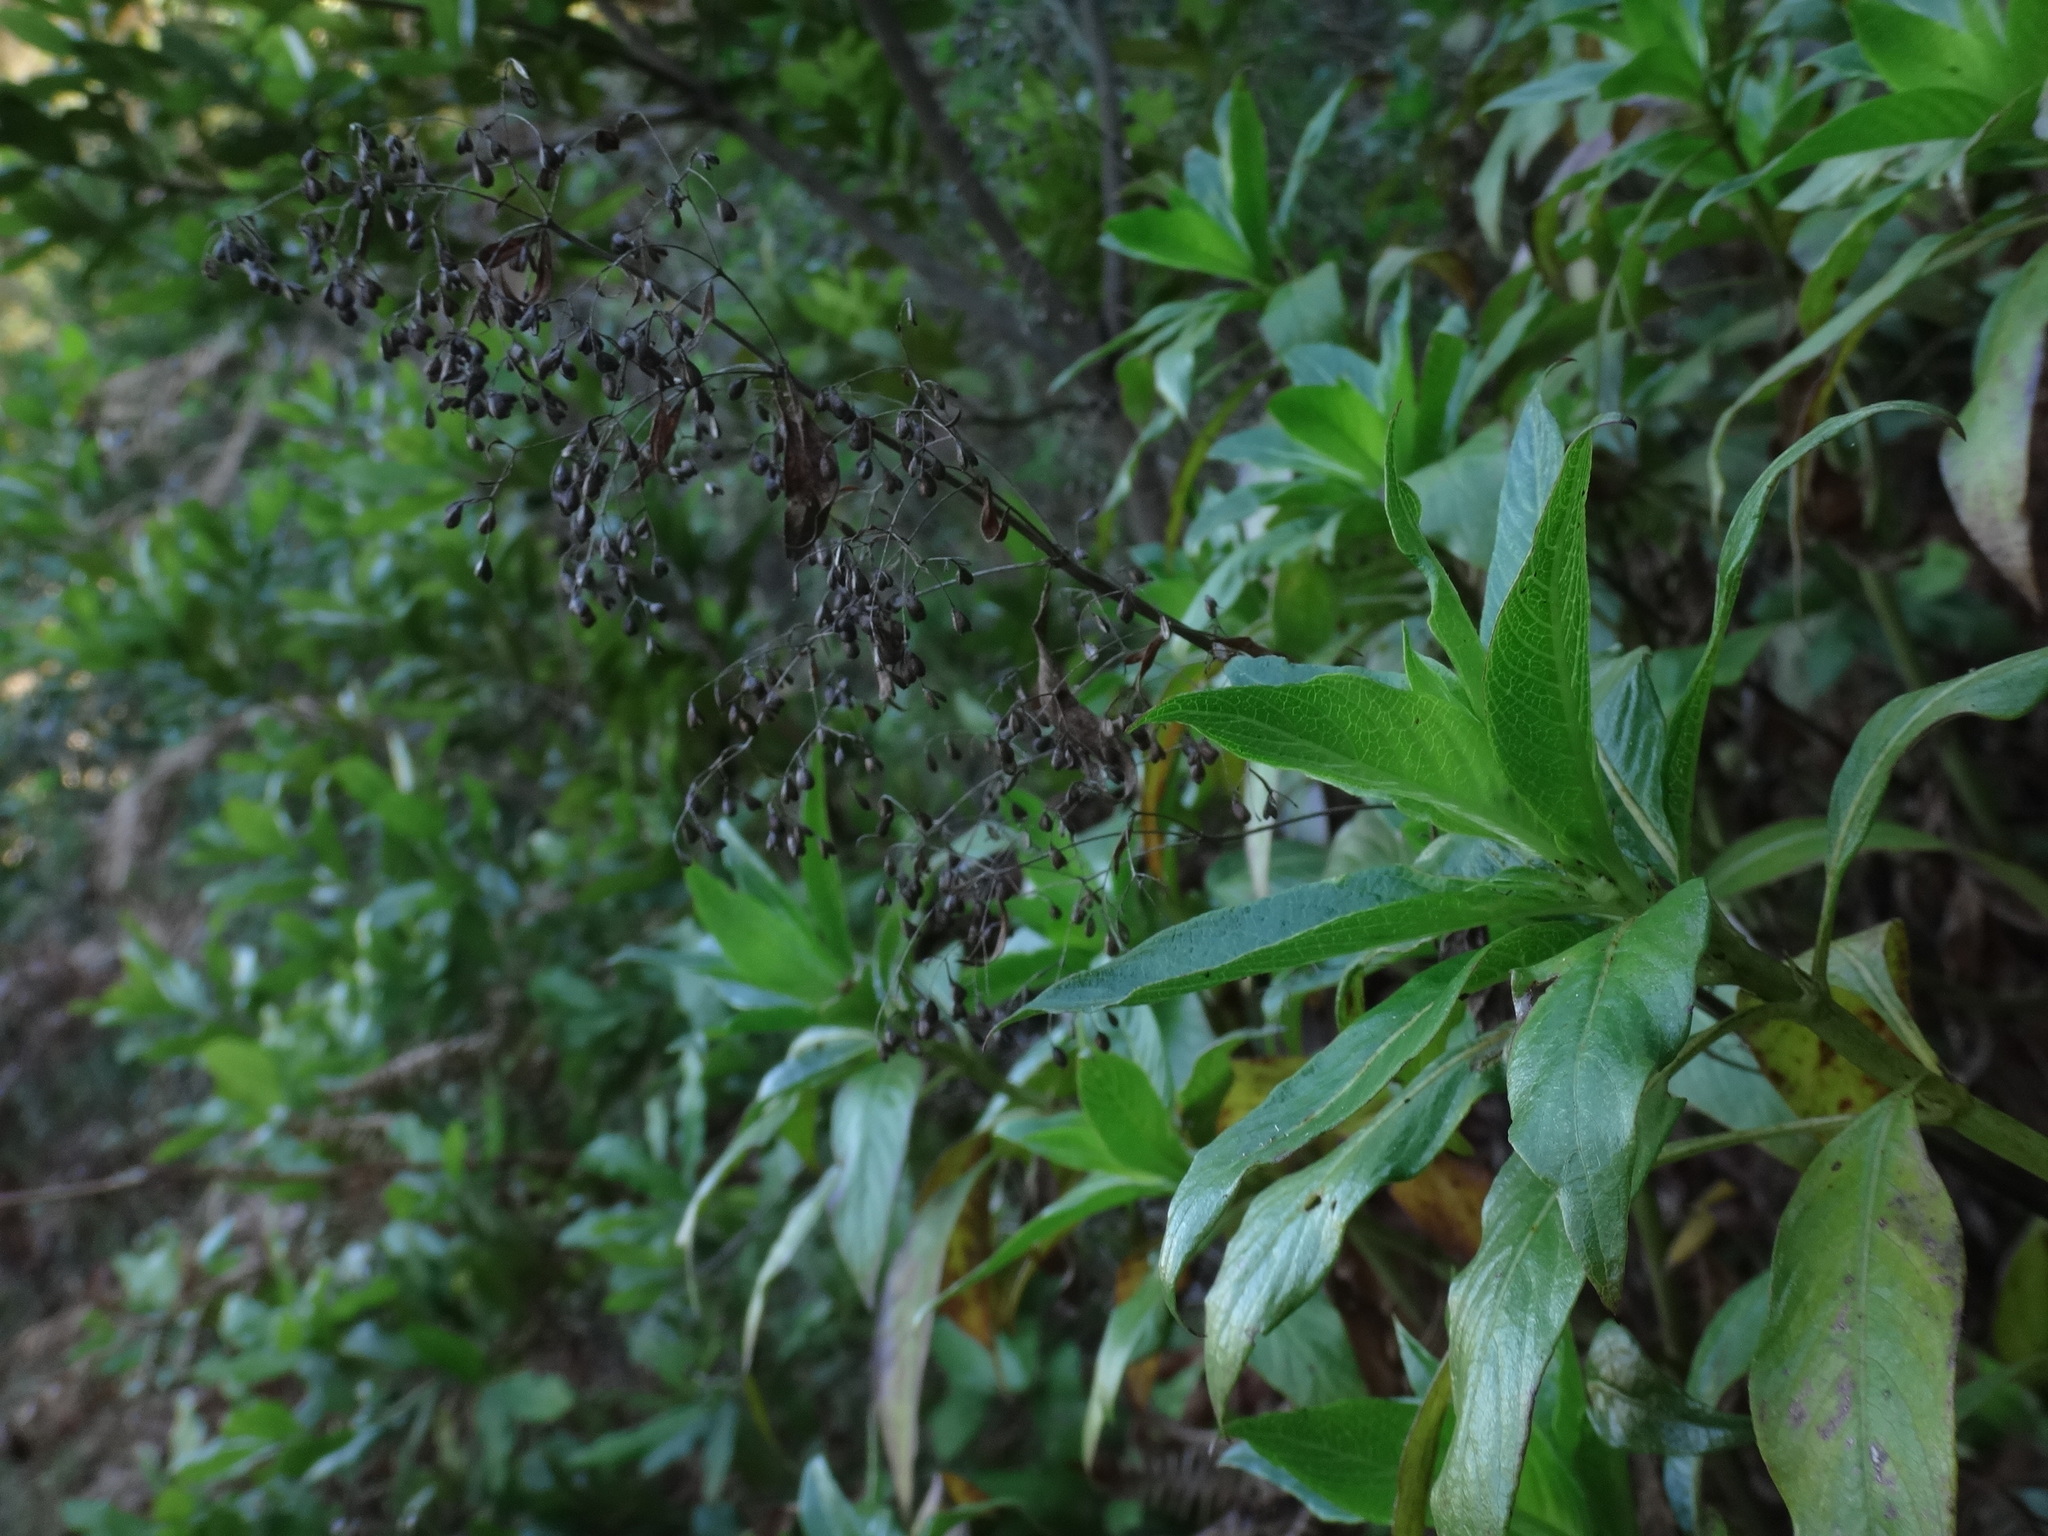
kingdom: Plantae
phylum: Tracheophyta
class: Magnoliopsida
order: Gentianales
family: Rubiaceae
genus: Phyllis
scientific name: Phyllis nobla
